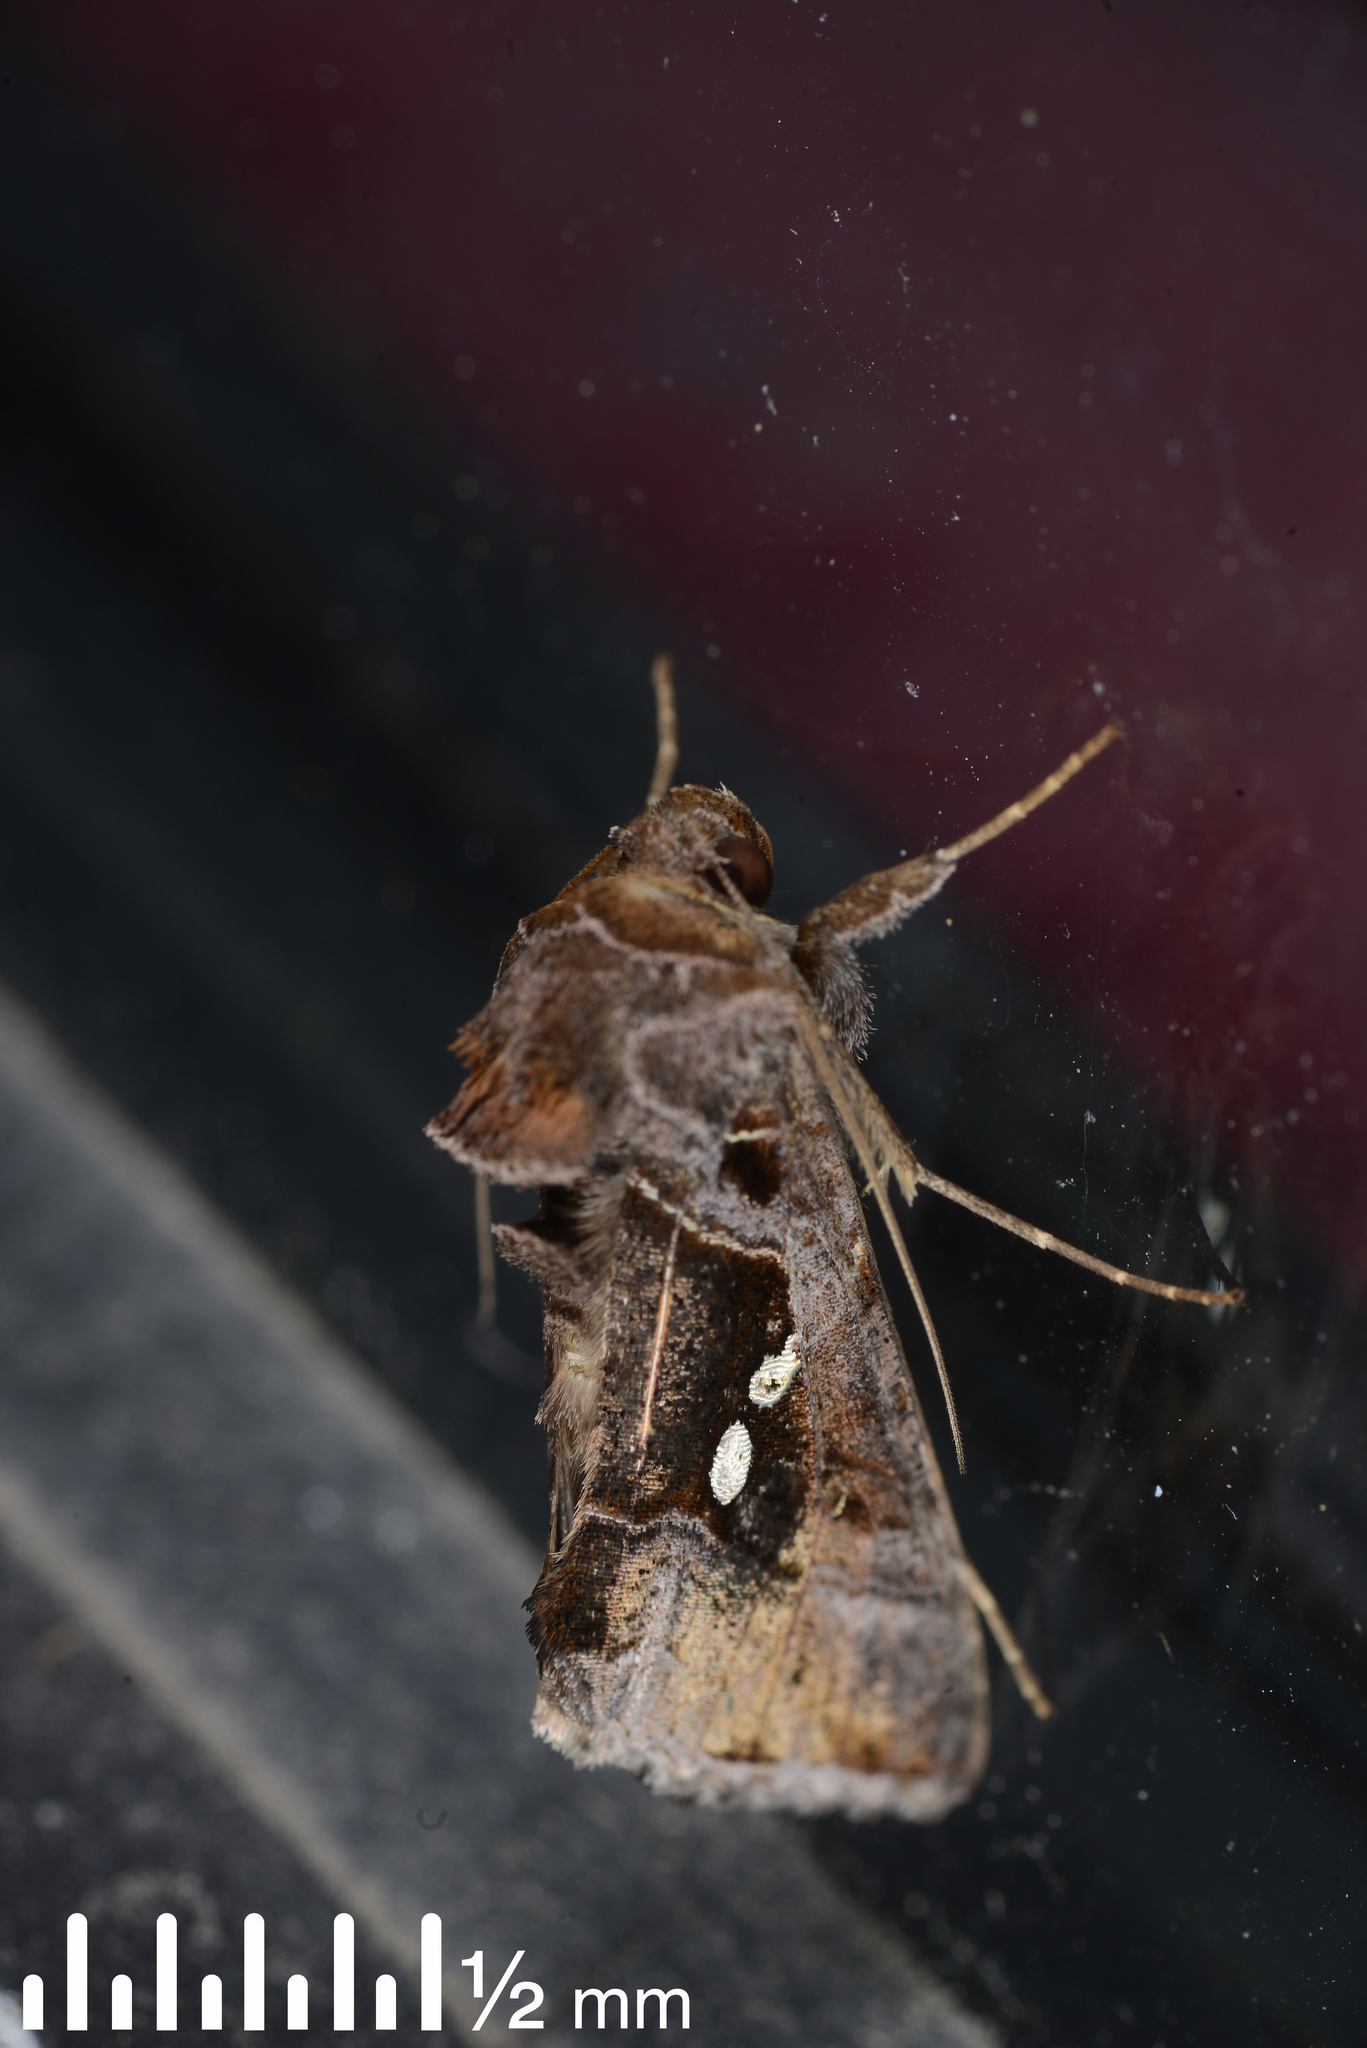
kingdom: Animalia
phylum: Arthropoda
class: Insecta
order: Lepidoptera
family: Noctuidae
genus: Chrysodeixis
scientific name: Chrysodeixis eriosoma
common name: Green garden looper
